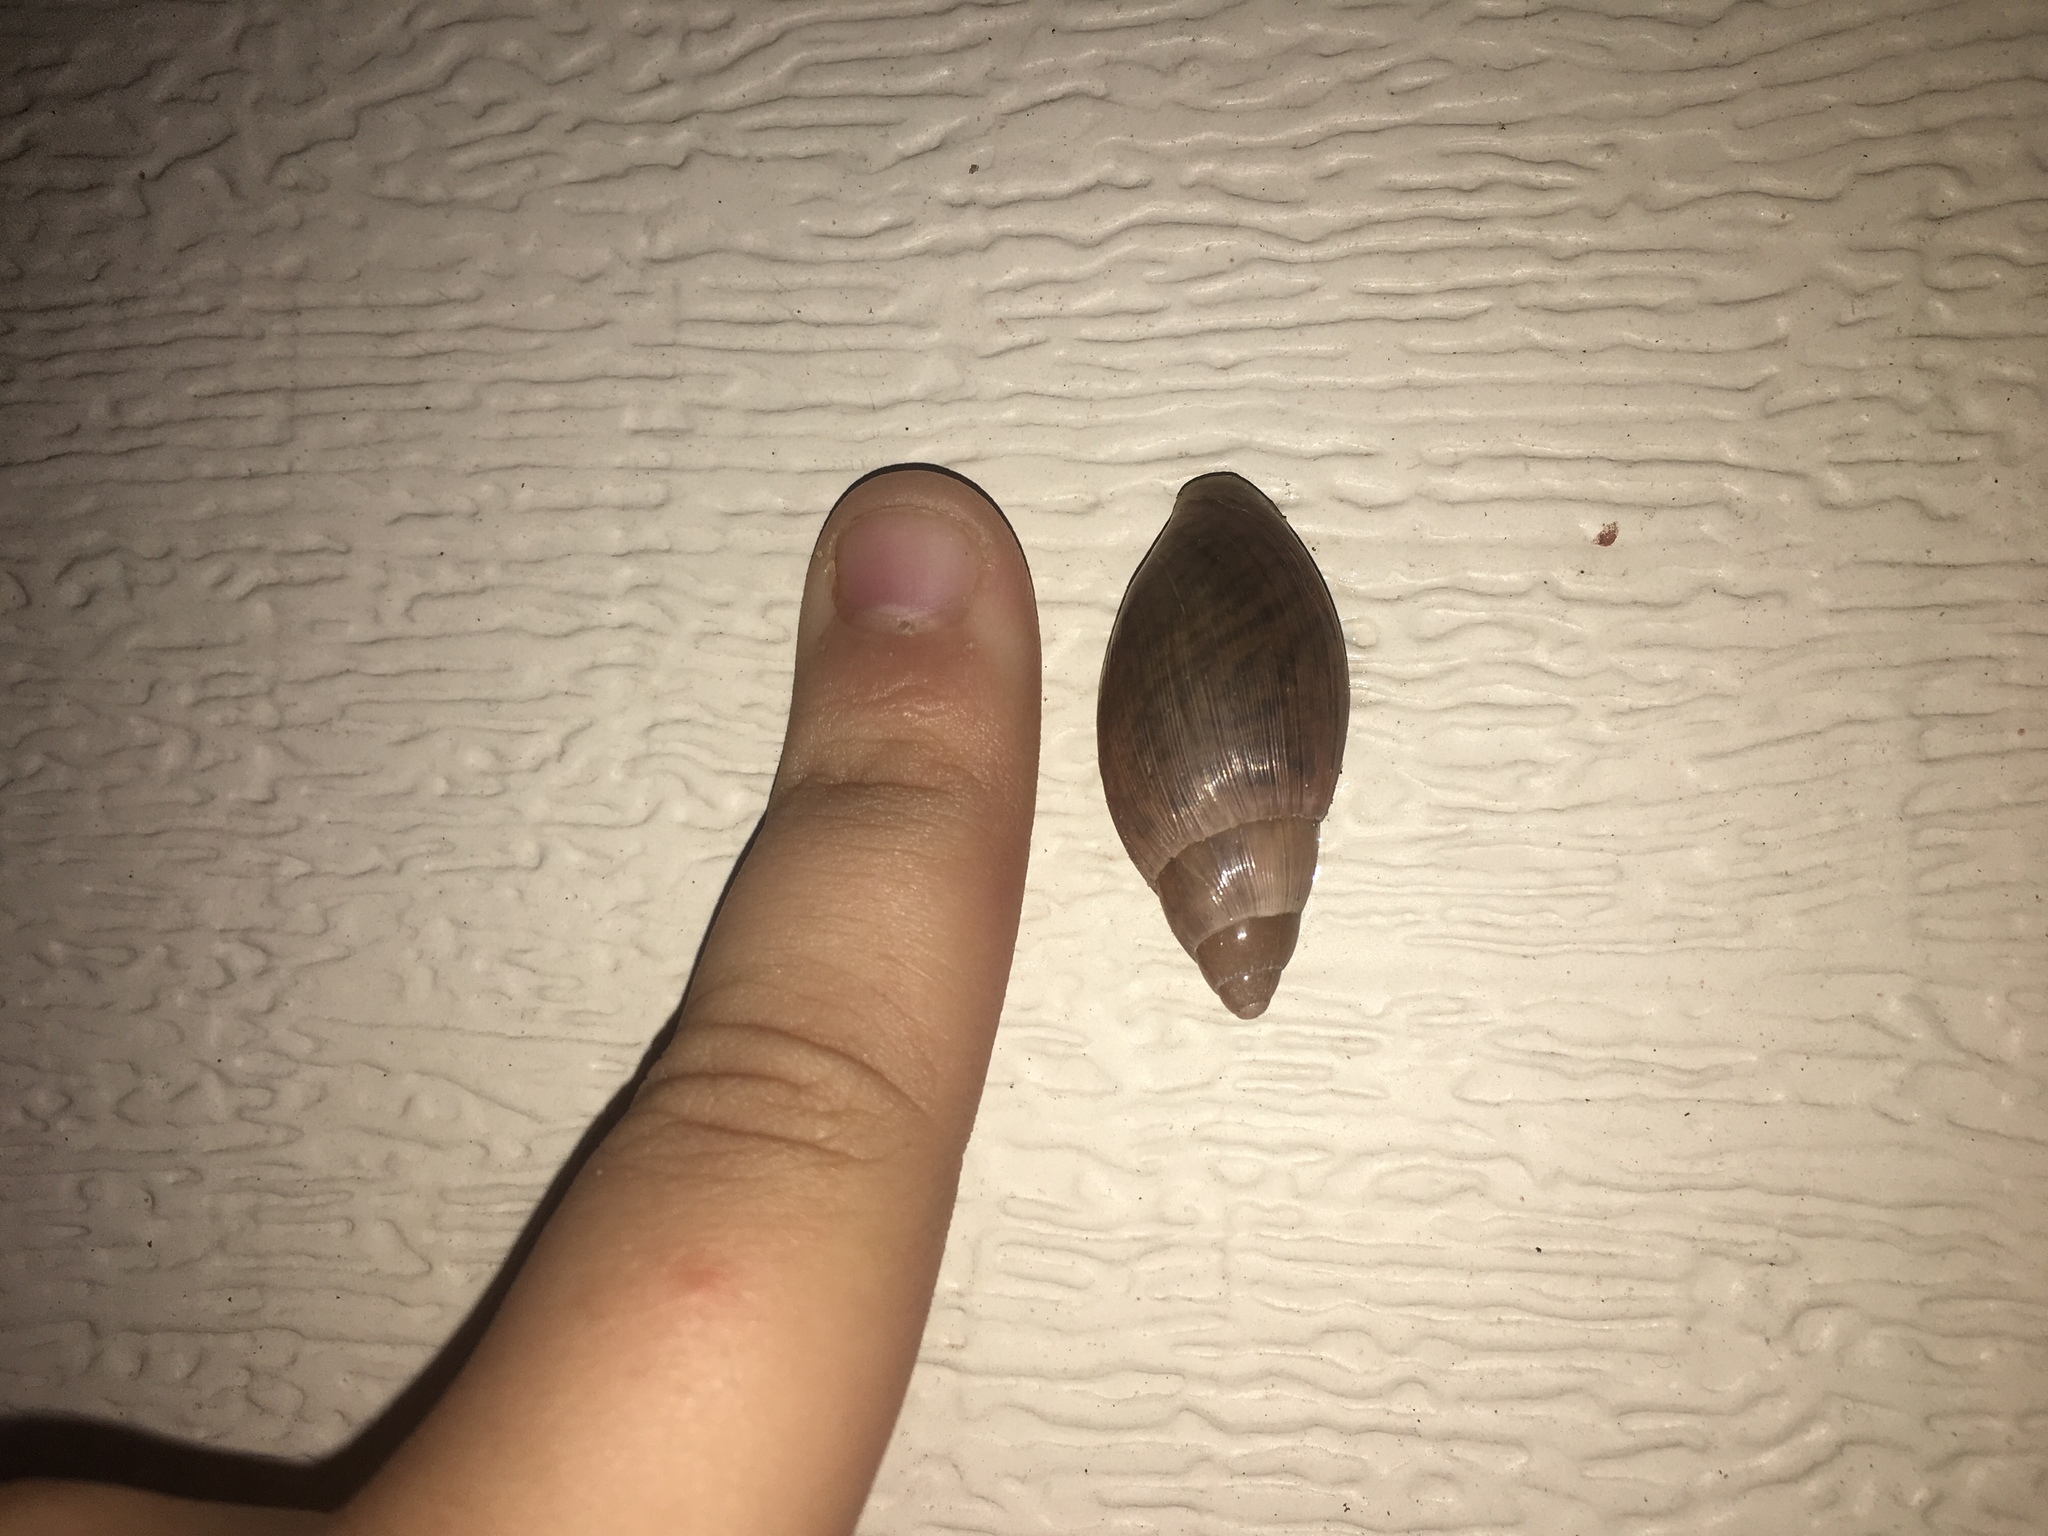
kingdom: Animalia
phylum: Mollusca
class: Gastropoda
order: Stylommatophora
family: Spiraxidae
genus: Euglandina
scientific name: Euglandina rosea
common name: Rosy wolfsnail
